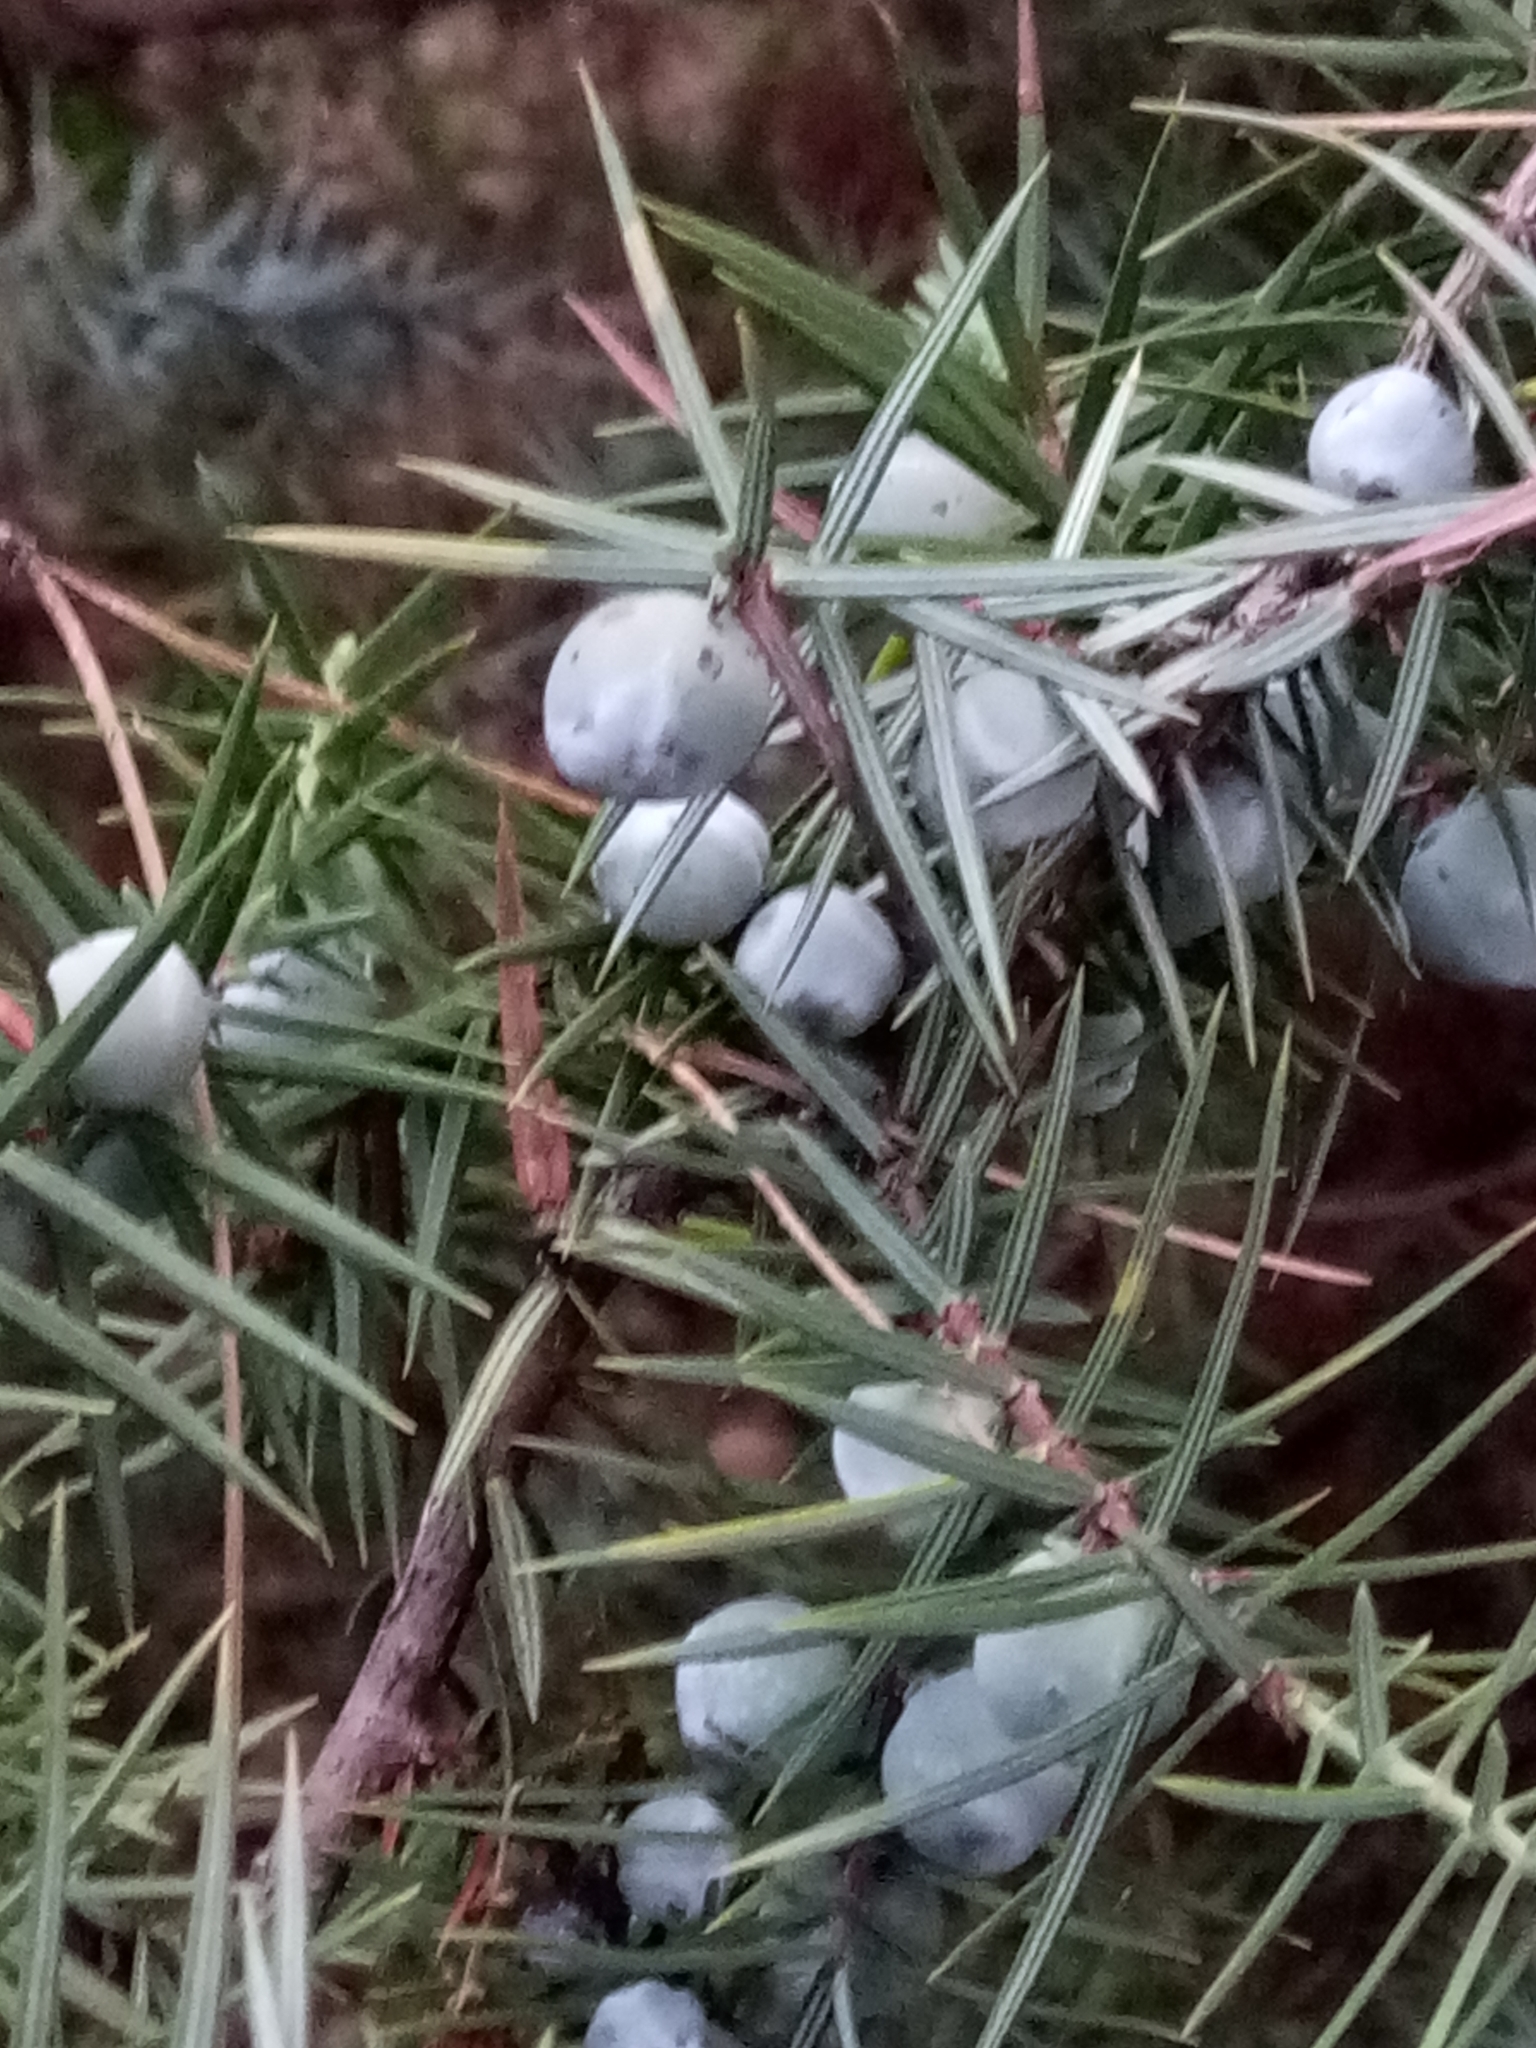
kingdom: Plantae
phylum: Tracheophyta
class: Pinopsida
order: Pinales
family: Cupressaceae
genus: Juniperus
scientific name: Juniperus oxycedrus
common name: Prickly juniper
